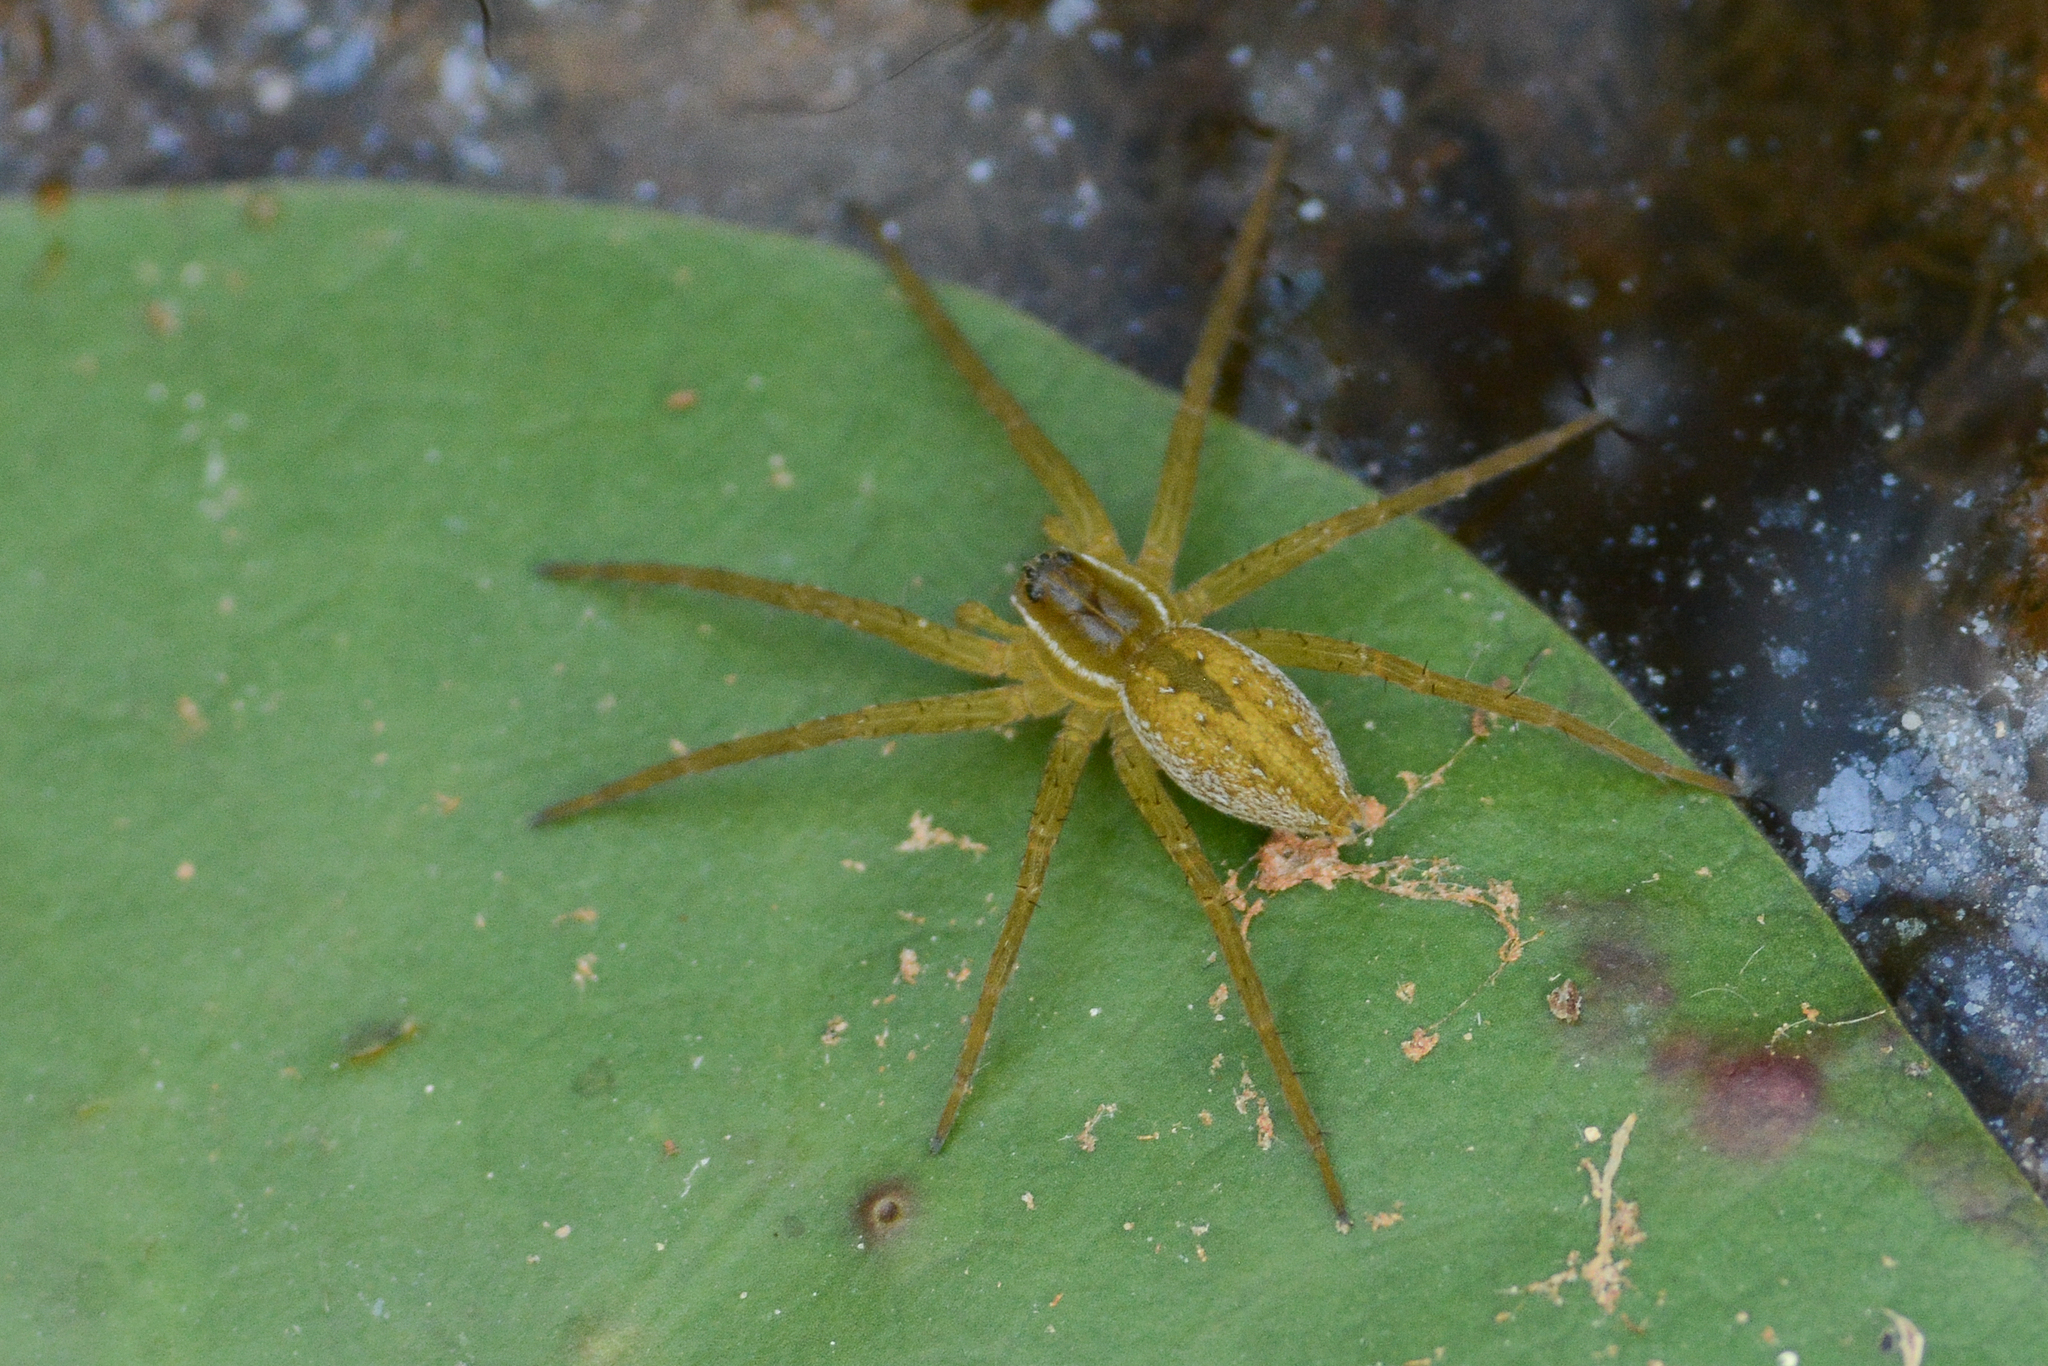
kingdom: Animalia
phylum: Arthropoda
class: Arachnida
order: Araneae
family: Pisauridae
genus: Dolomedes
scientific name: Dolomedes triton
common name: Six-spotted fishing spider
